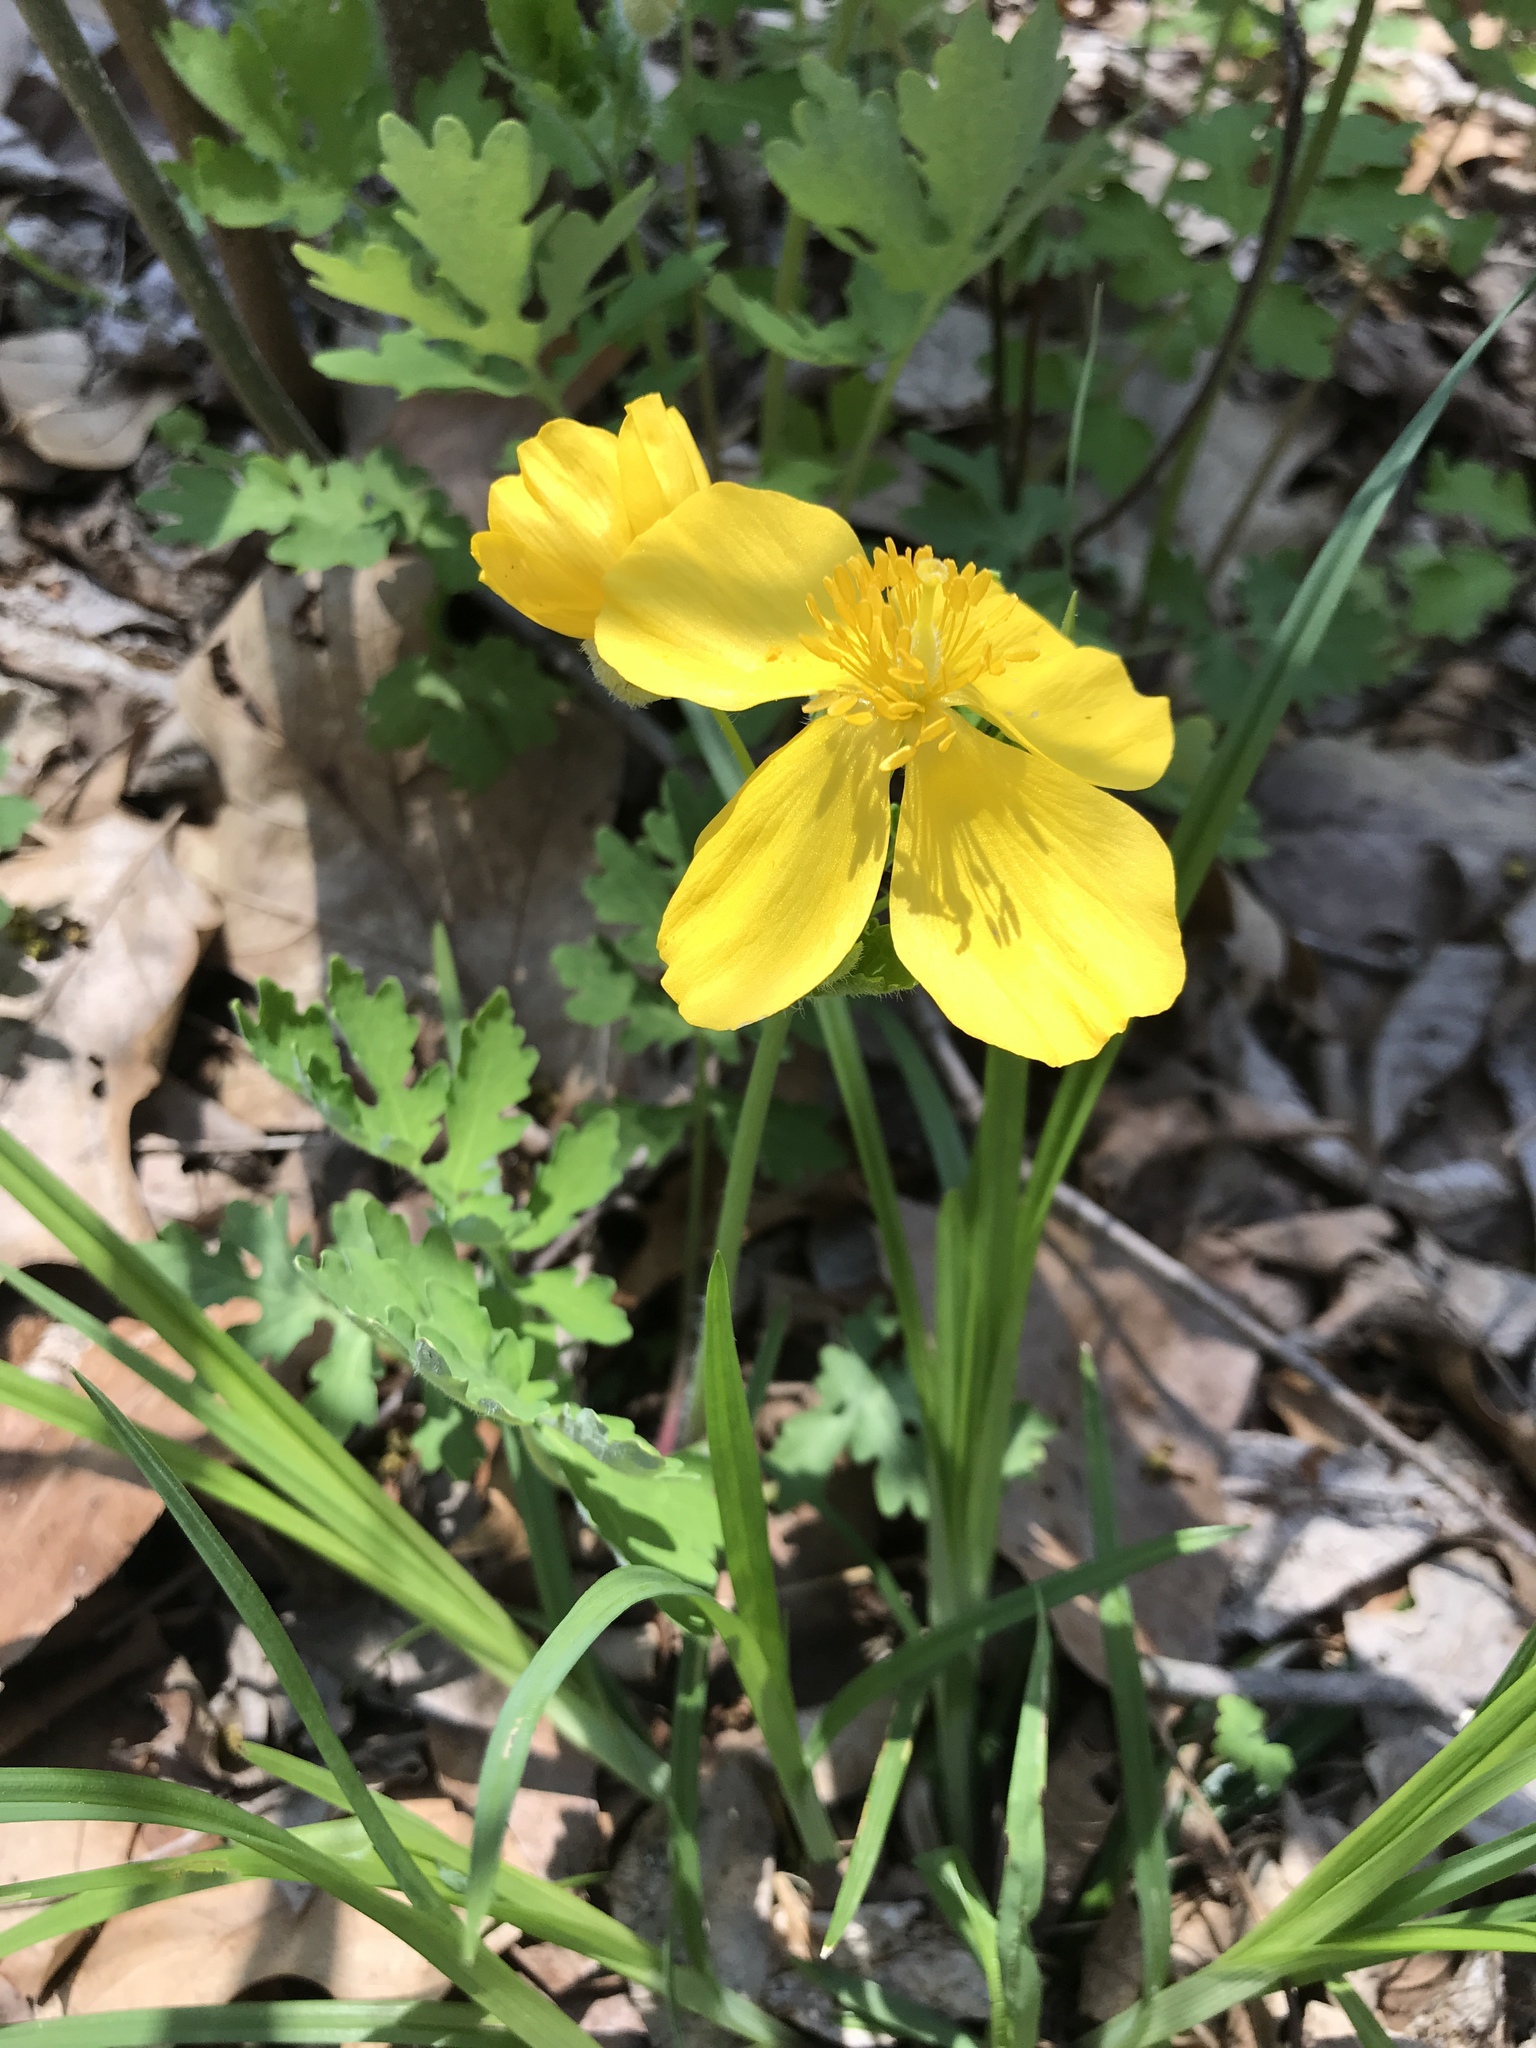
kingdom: Plantae
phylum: Tracheophyta
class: Magnoliopsida
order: Ranunculales
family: Papaveraceae
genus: Stylophorum
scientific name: Stylophorum diphyllum
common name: Celandine poppy
